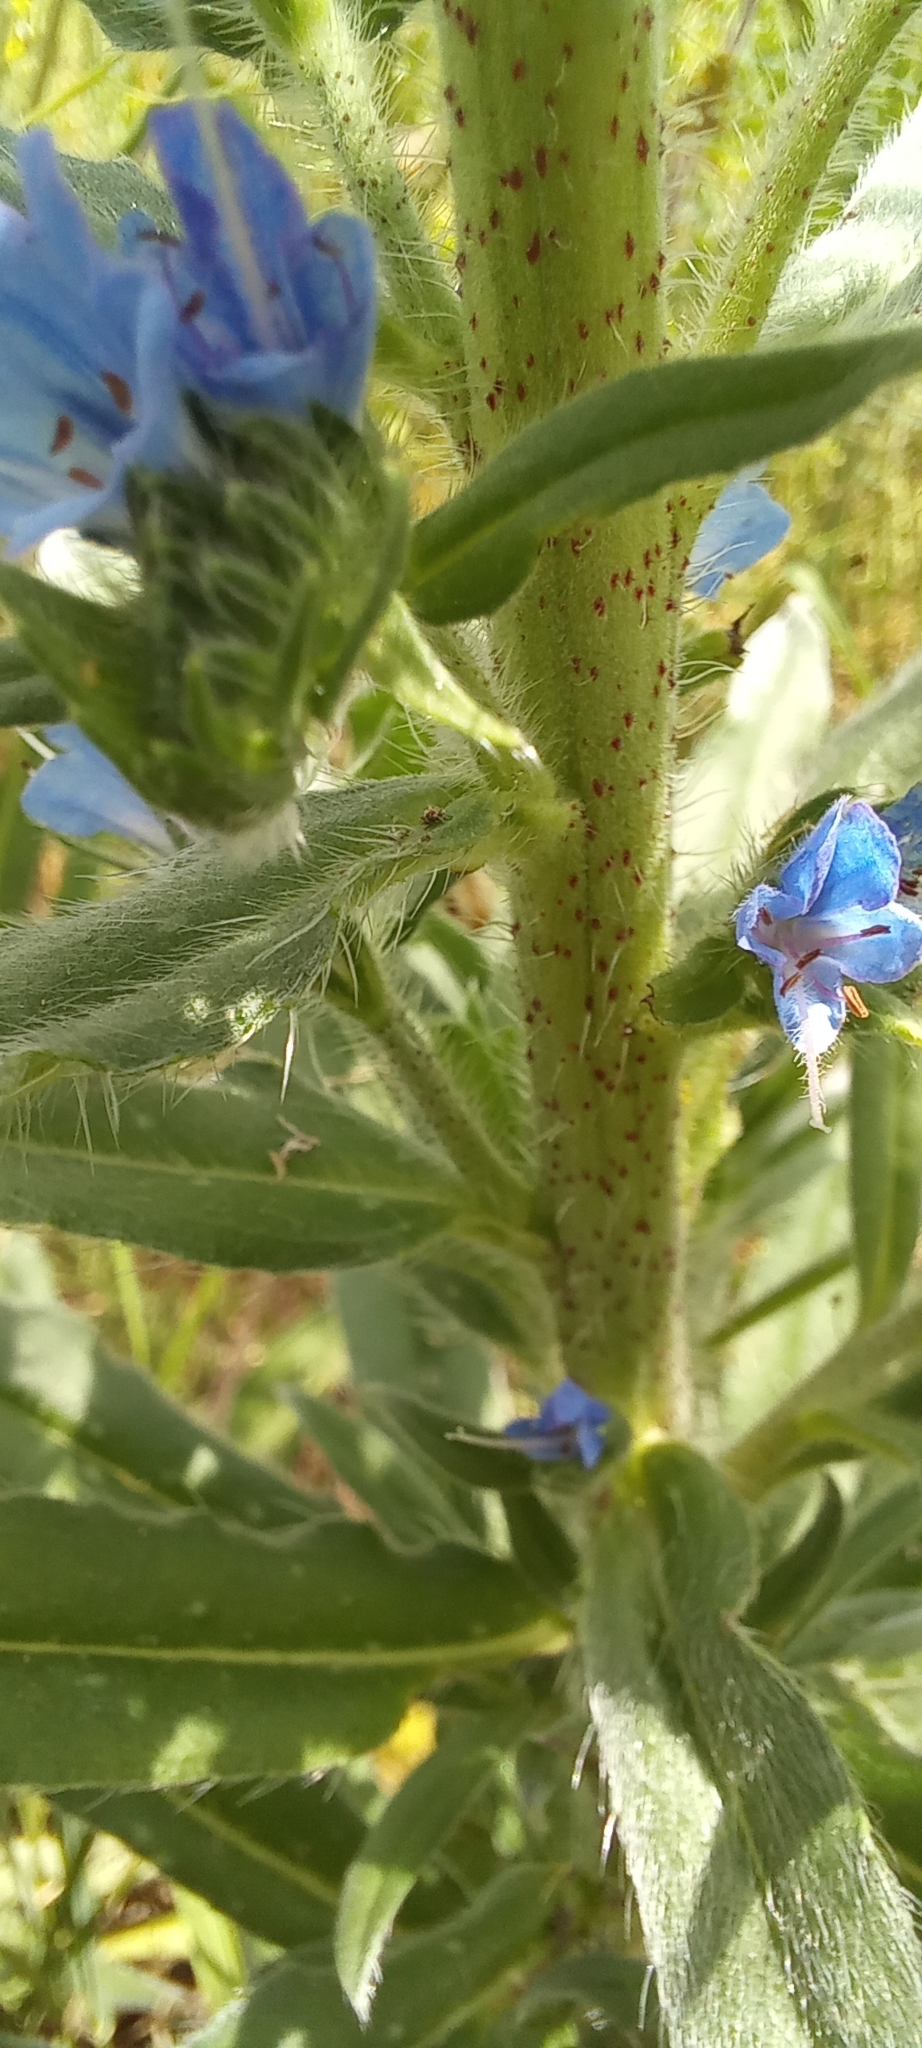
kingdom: Plantae
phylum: Tracheophyta
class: Magnoliopsida
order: Boraginales
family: Boraginaceae
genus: Echium
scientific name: Echium vulgare
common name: Common viper's bugloss
